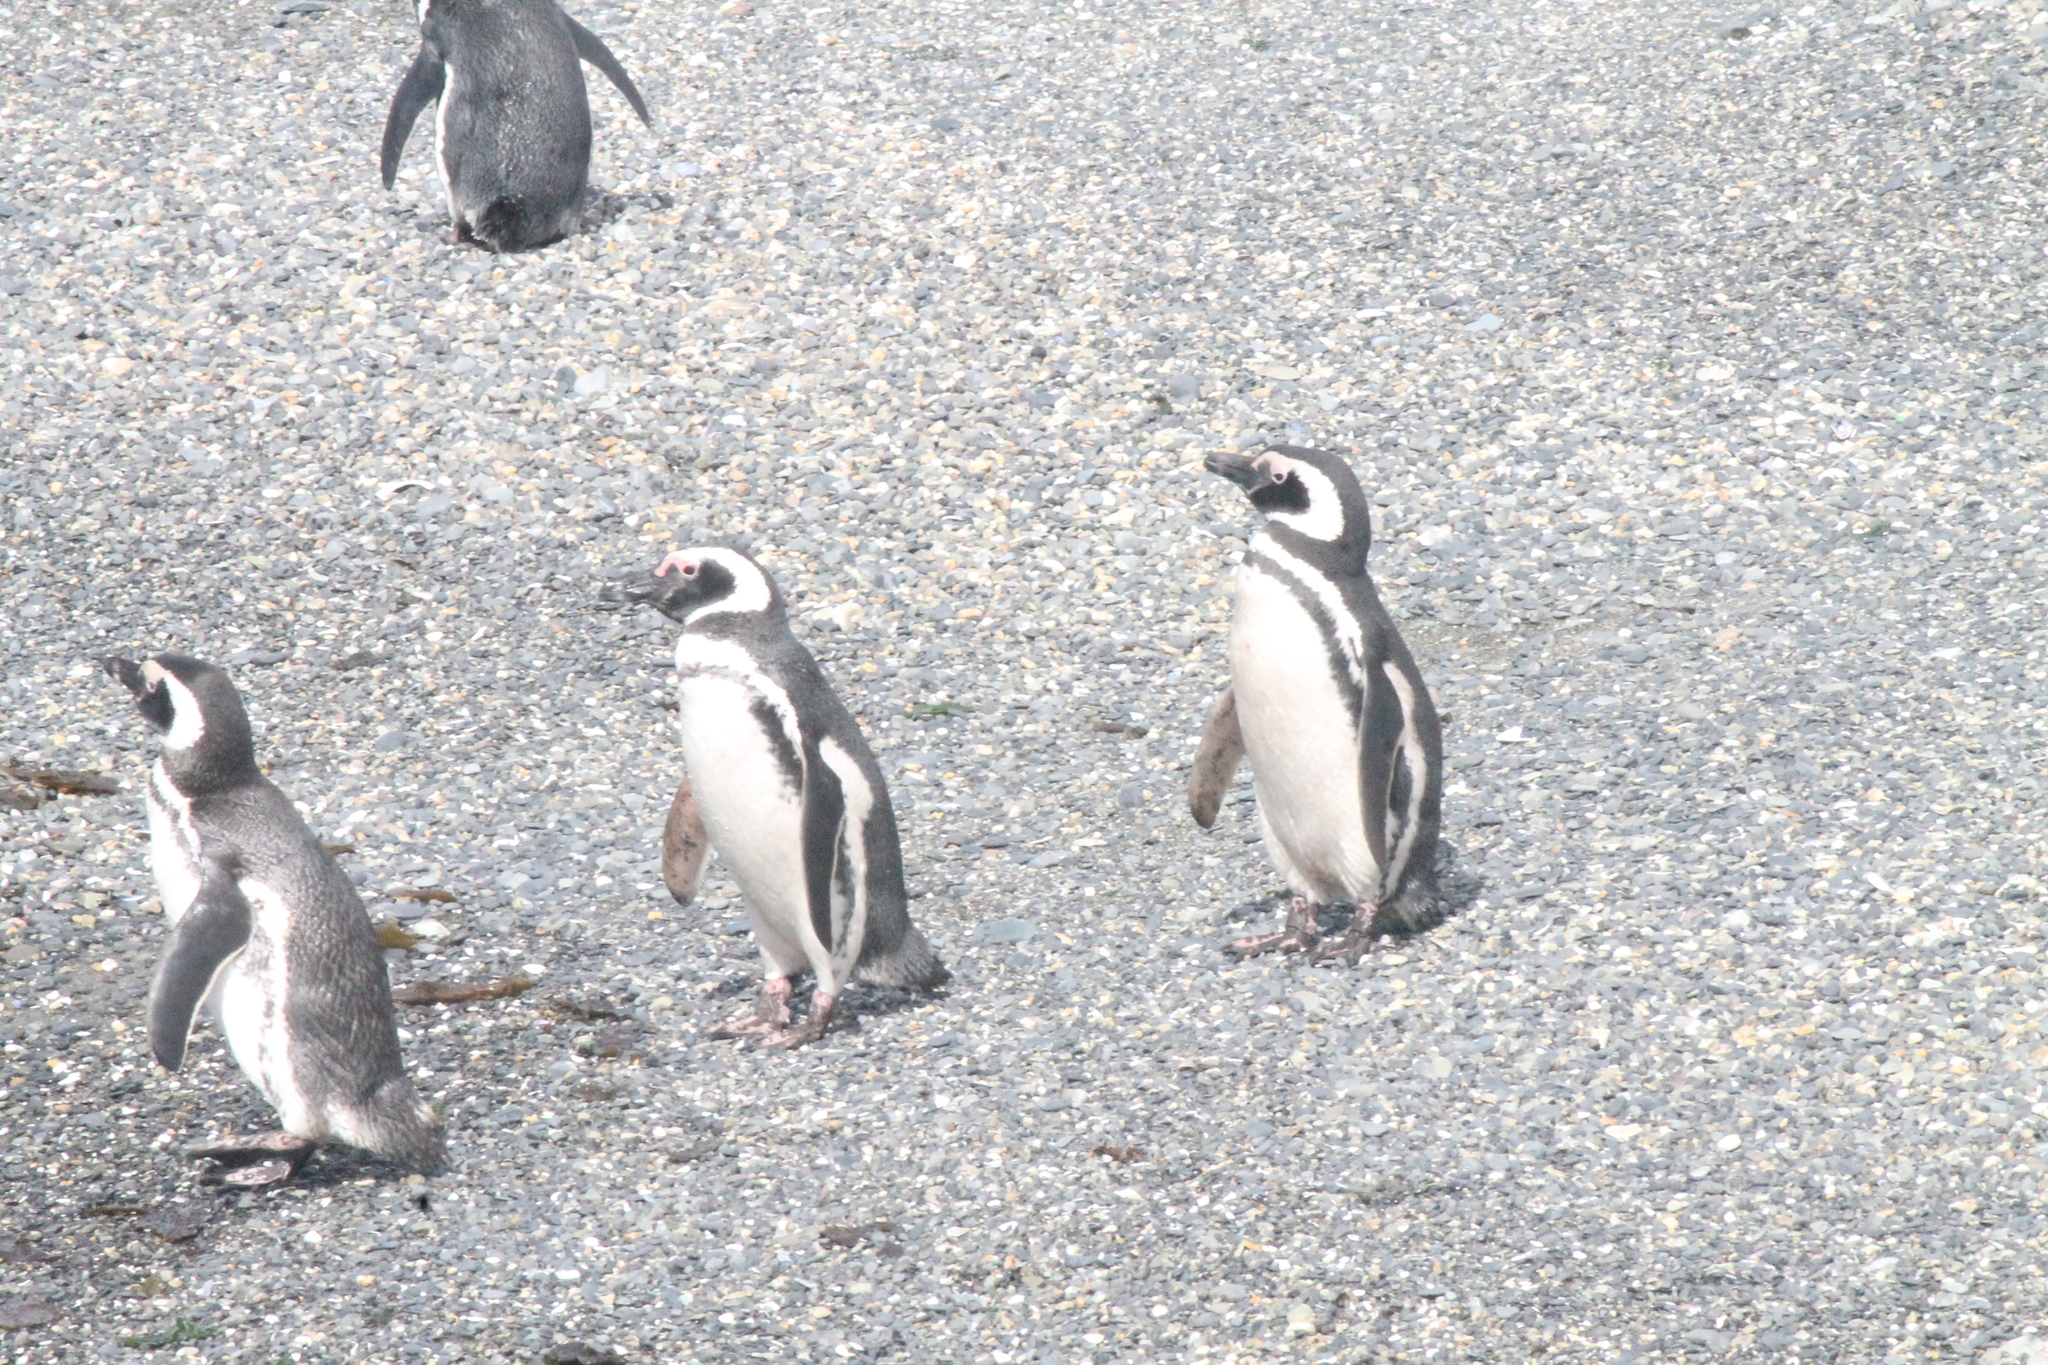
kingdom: Animalia
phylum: Chordata
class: Aves
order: Sphenisciformes
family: Spheniscidae
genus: Spheniscus
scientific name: Spheniscus magellanicus
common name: Magellanic penguin
